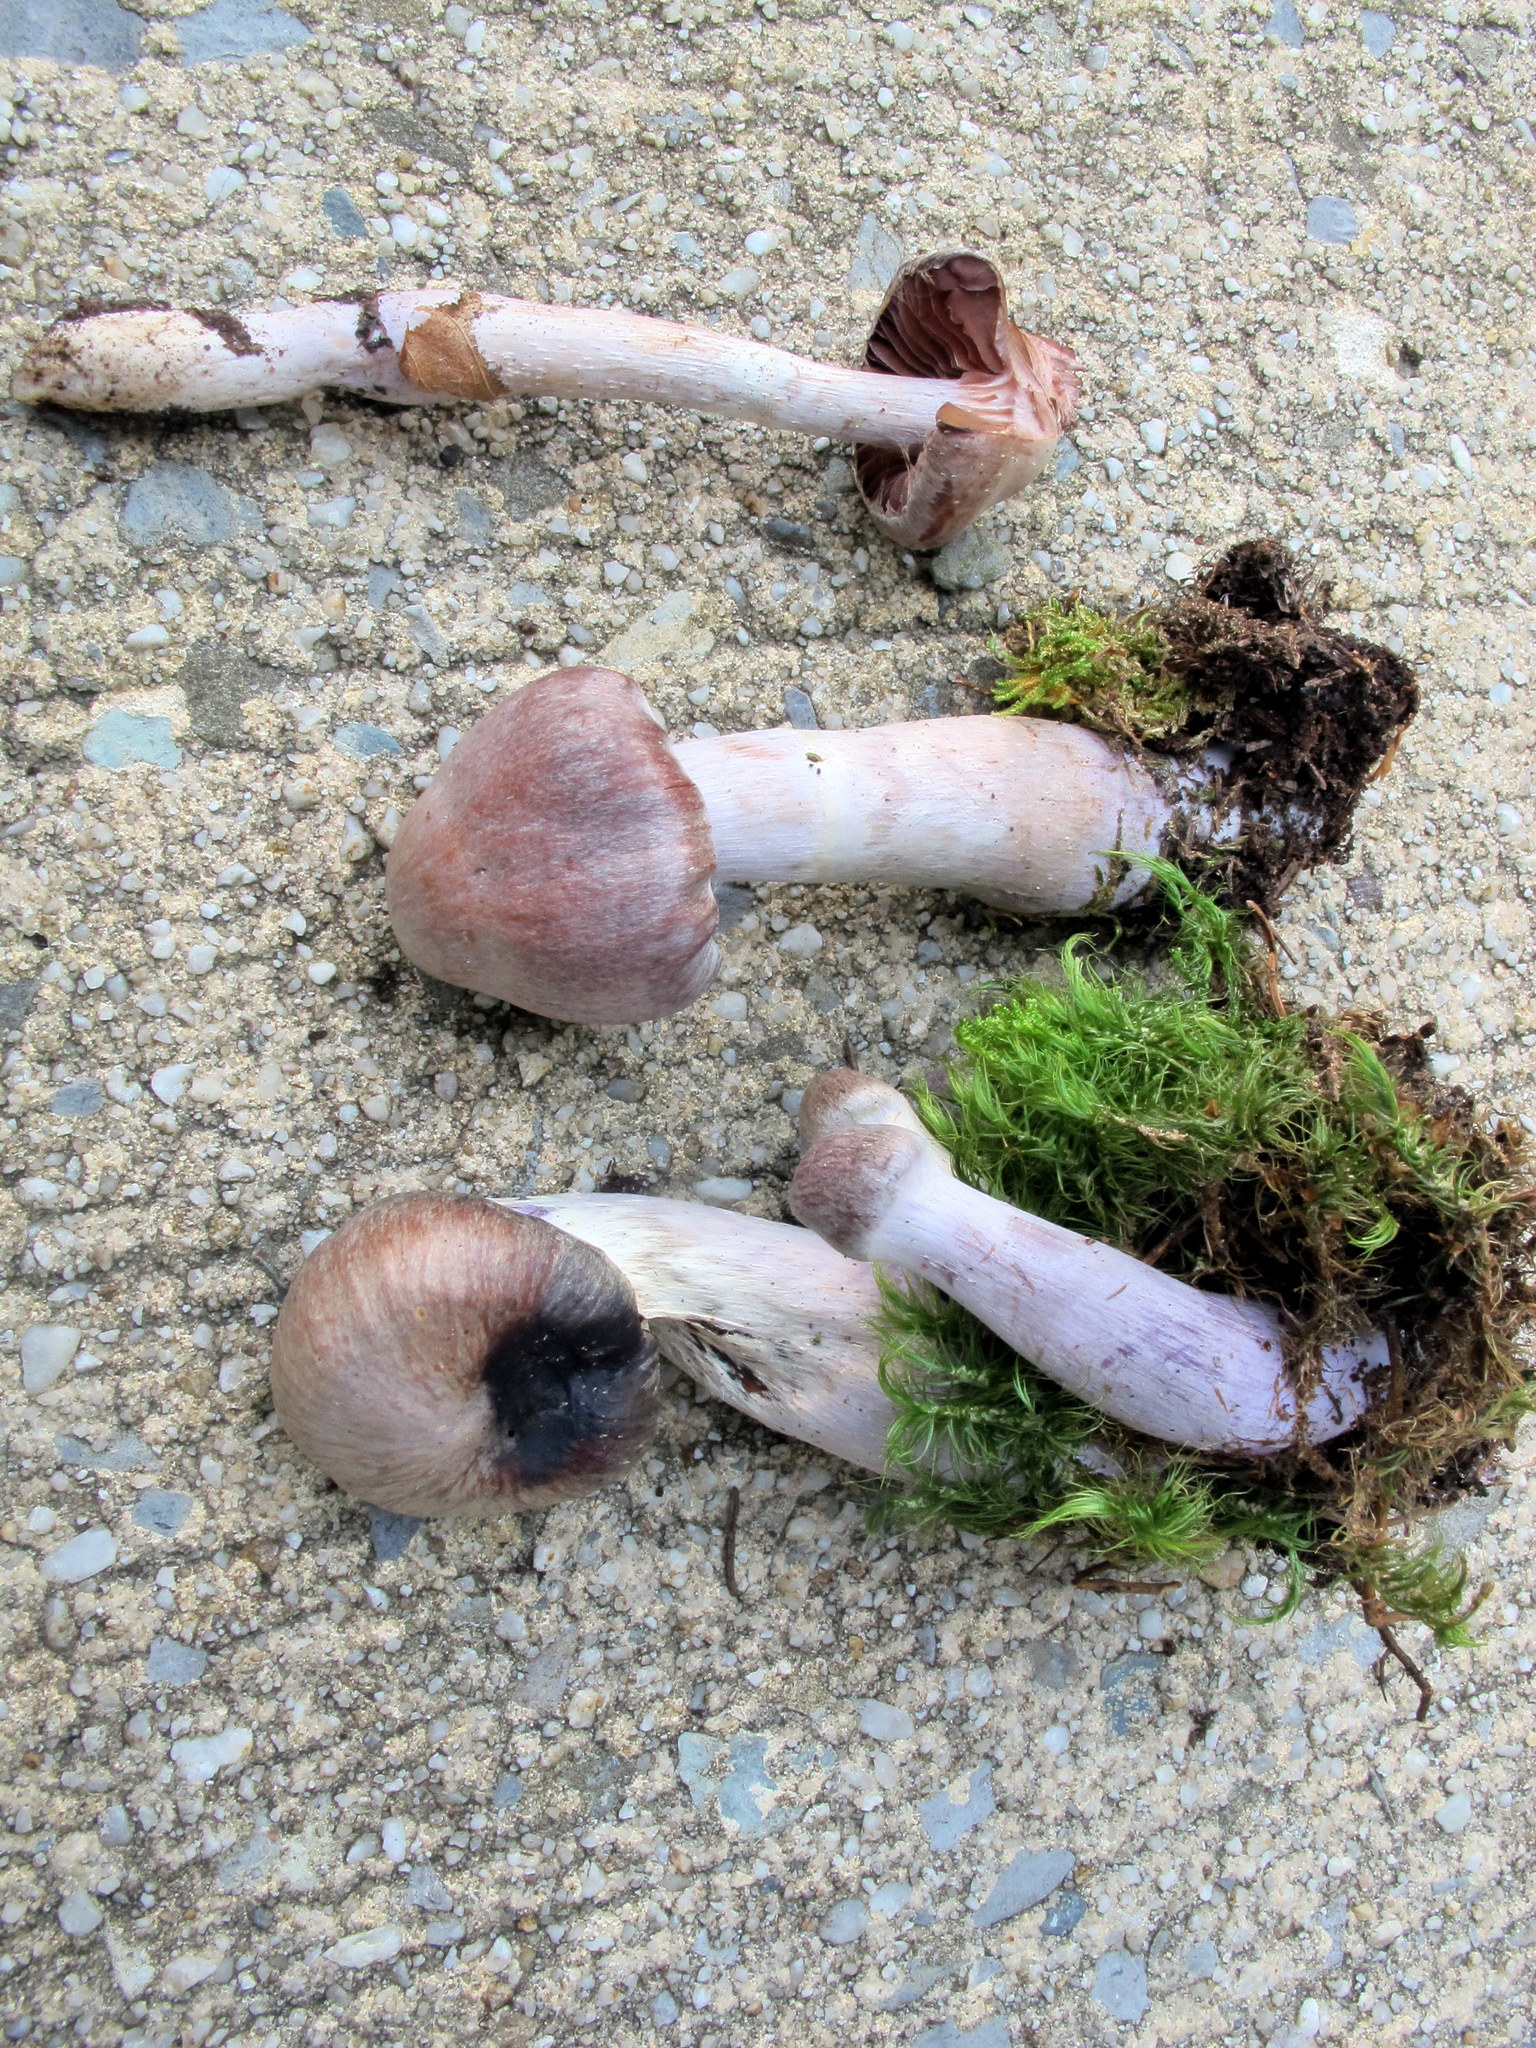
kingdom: Fungi
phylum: Basidiomycota
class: Agaricomycetes
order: Agaricales
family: Cortinariaceae
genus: Cortinarius
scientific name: Cortinarius evernius
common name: Silky webcap
